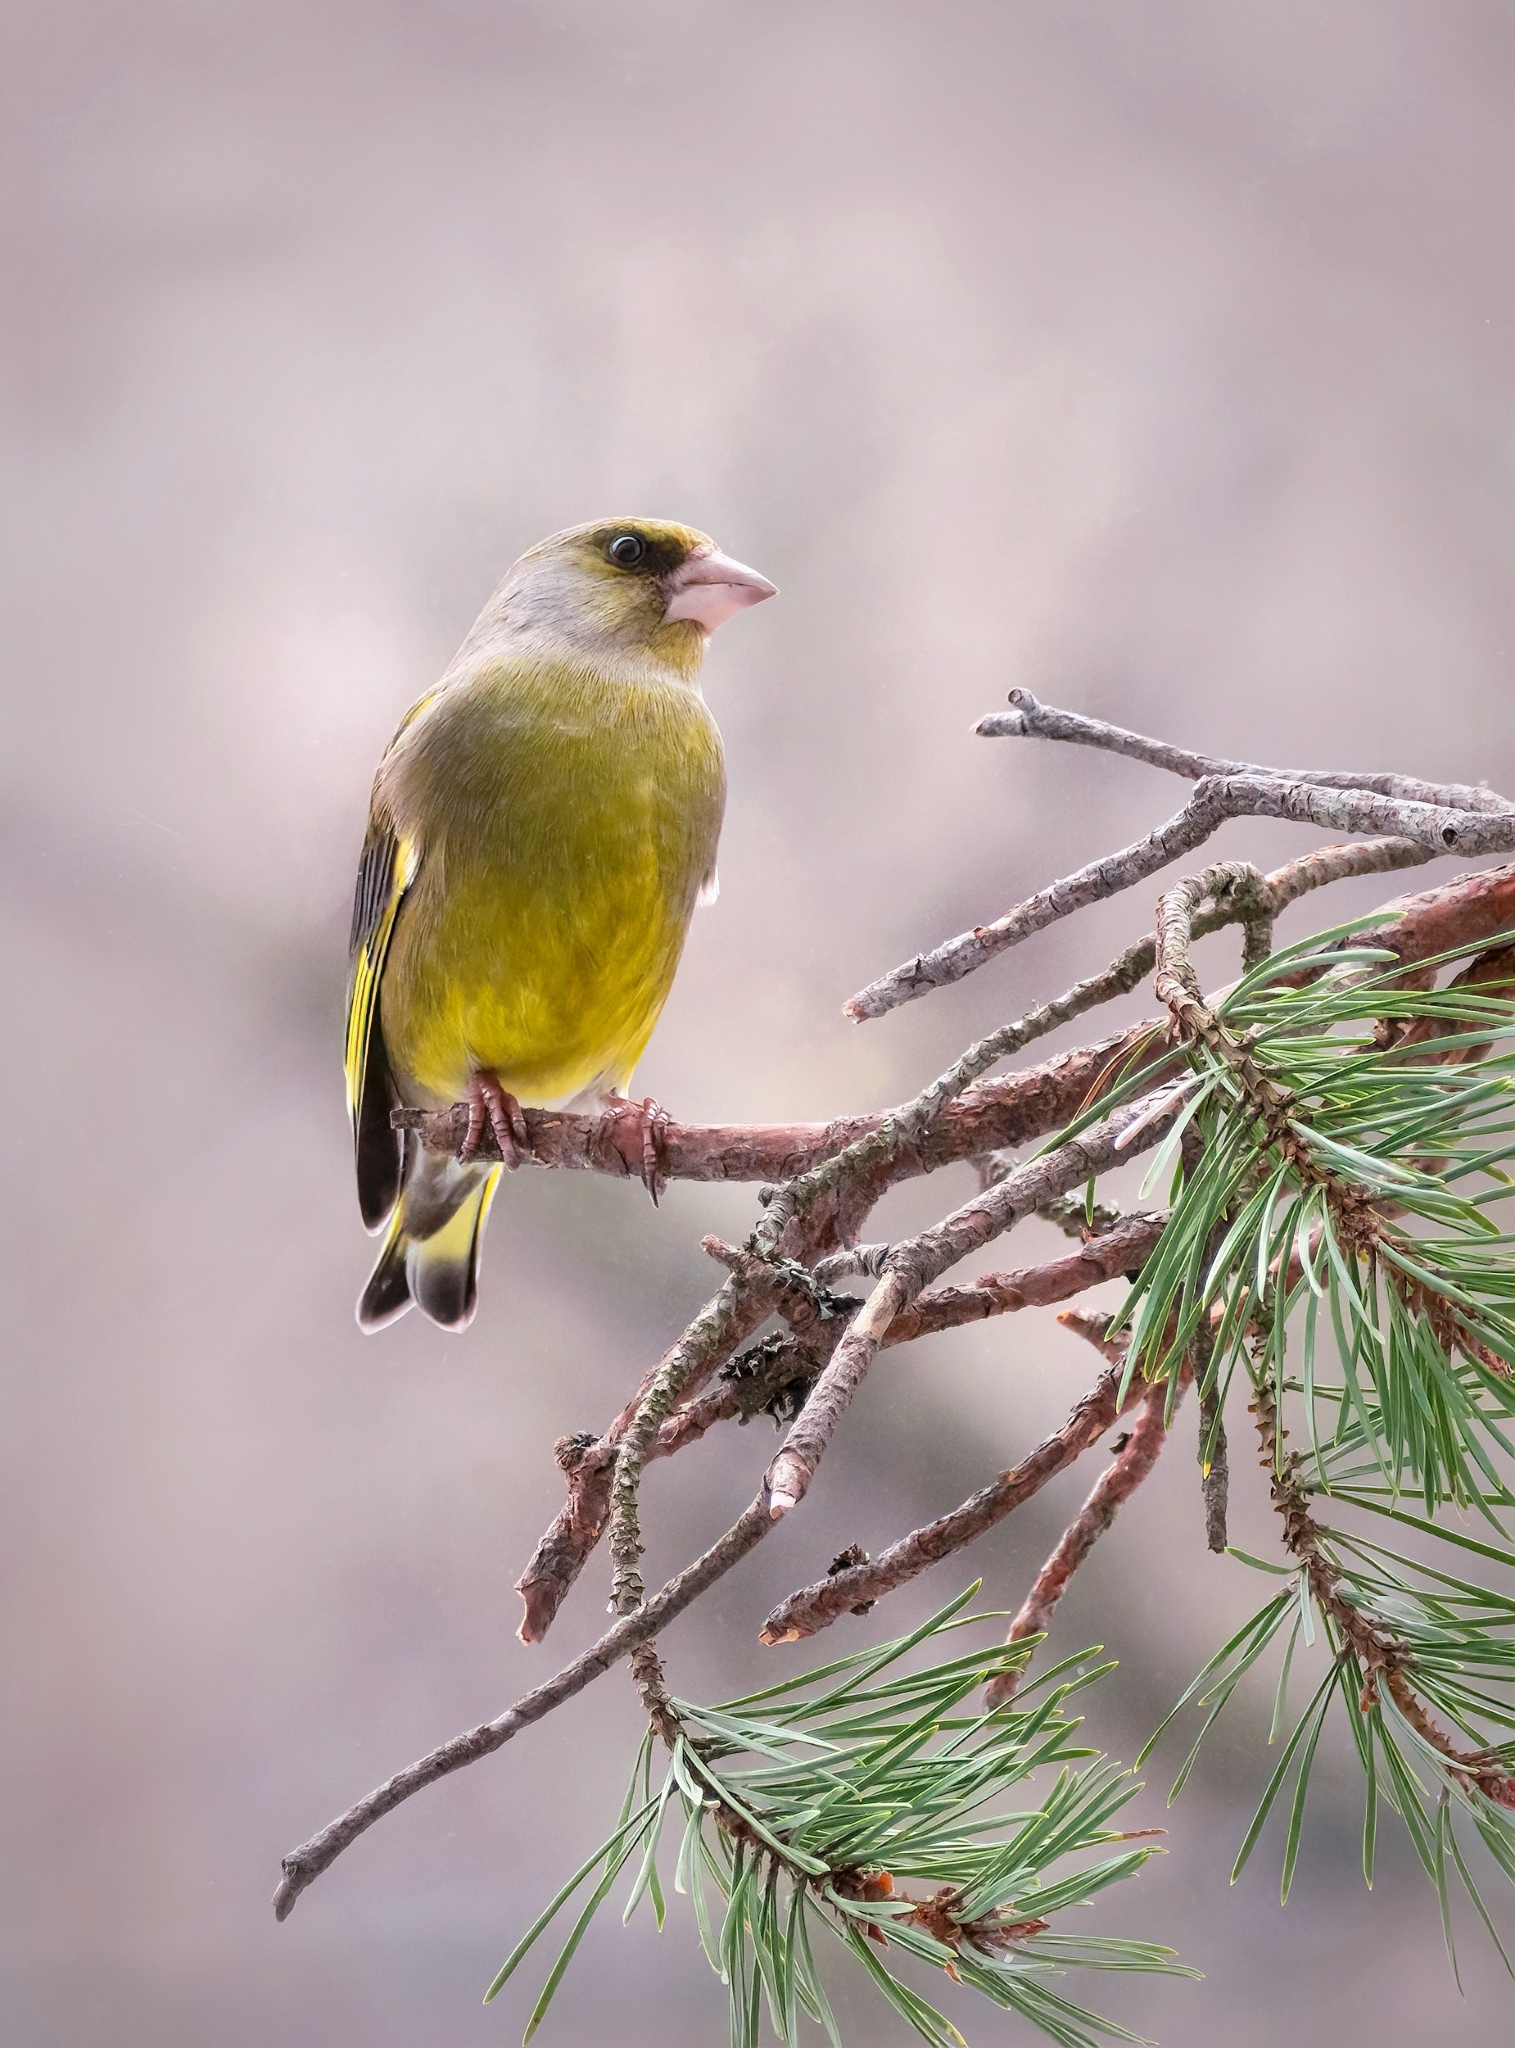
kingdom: Plantae
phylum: Tracheophyta
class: Liliopsida
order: Poales
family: Poaceae
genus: Chloris
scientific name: Chloris chloris
